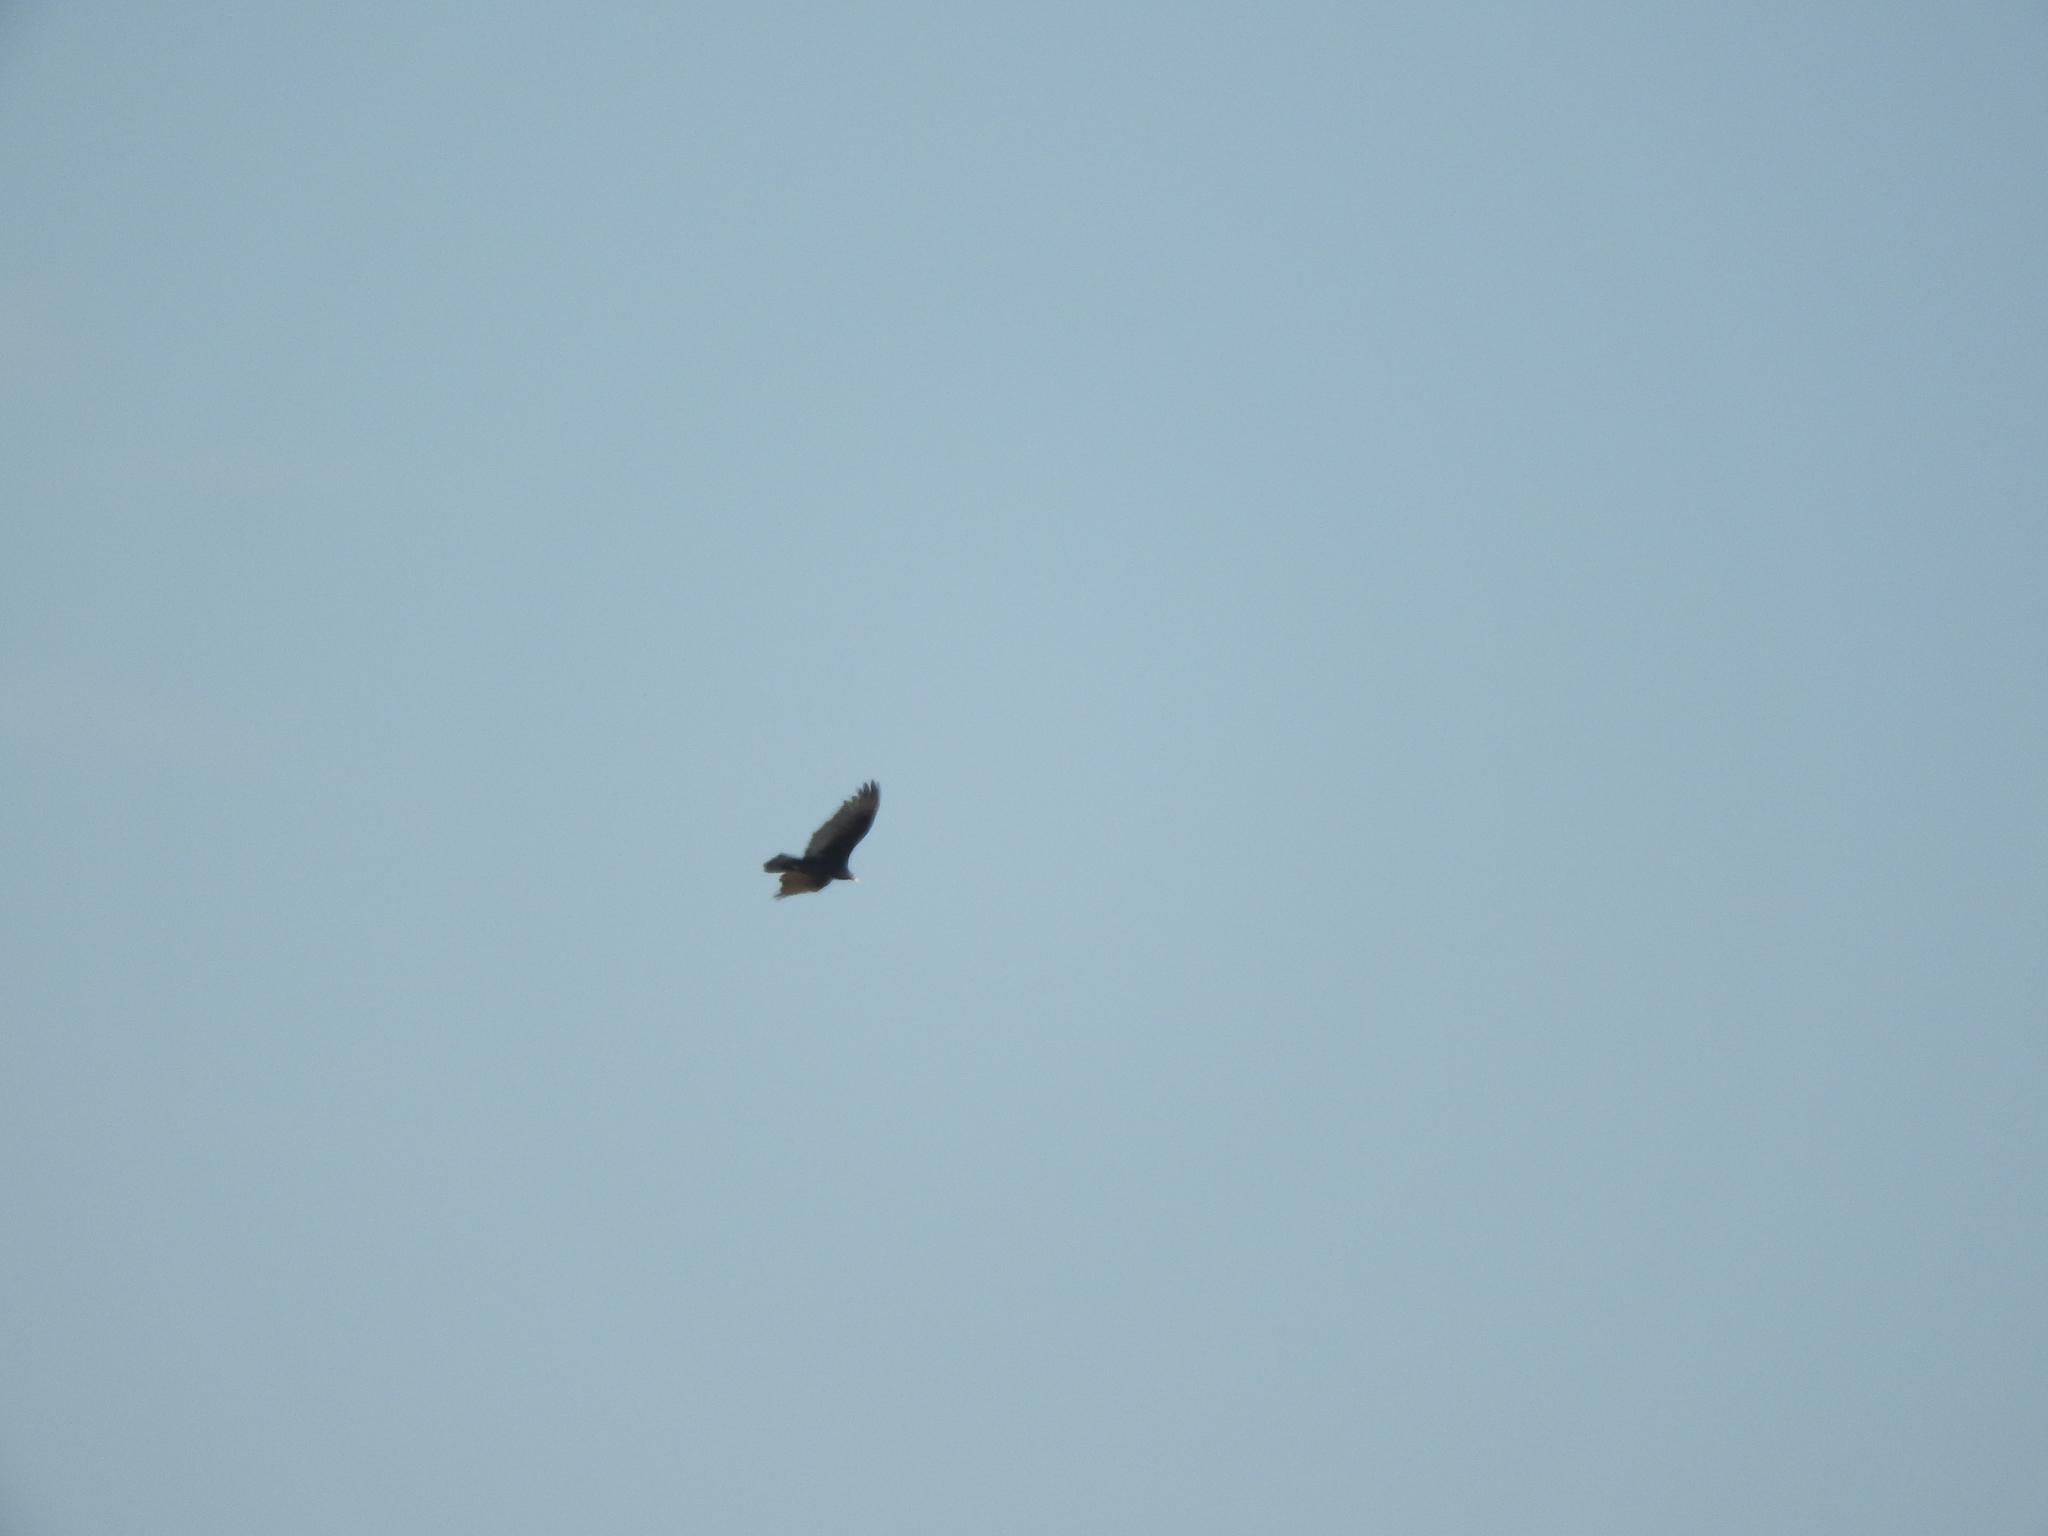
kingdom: Animalia
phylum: Chordata
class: Aves
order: Accipitriformes
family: Cathartidae
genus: Cathartes
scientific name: Cathartes aura
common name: Turkey vulture
